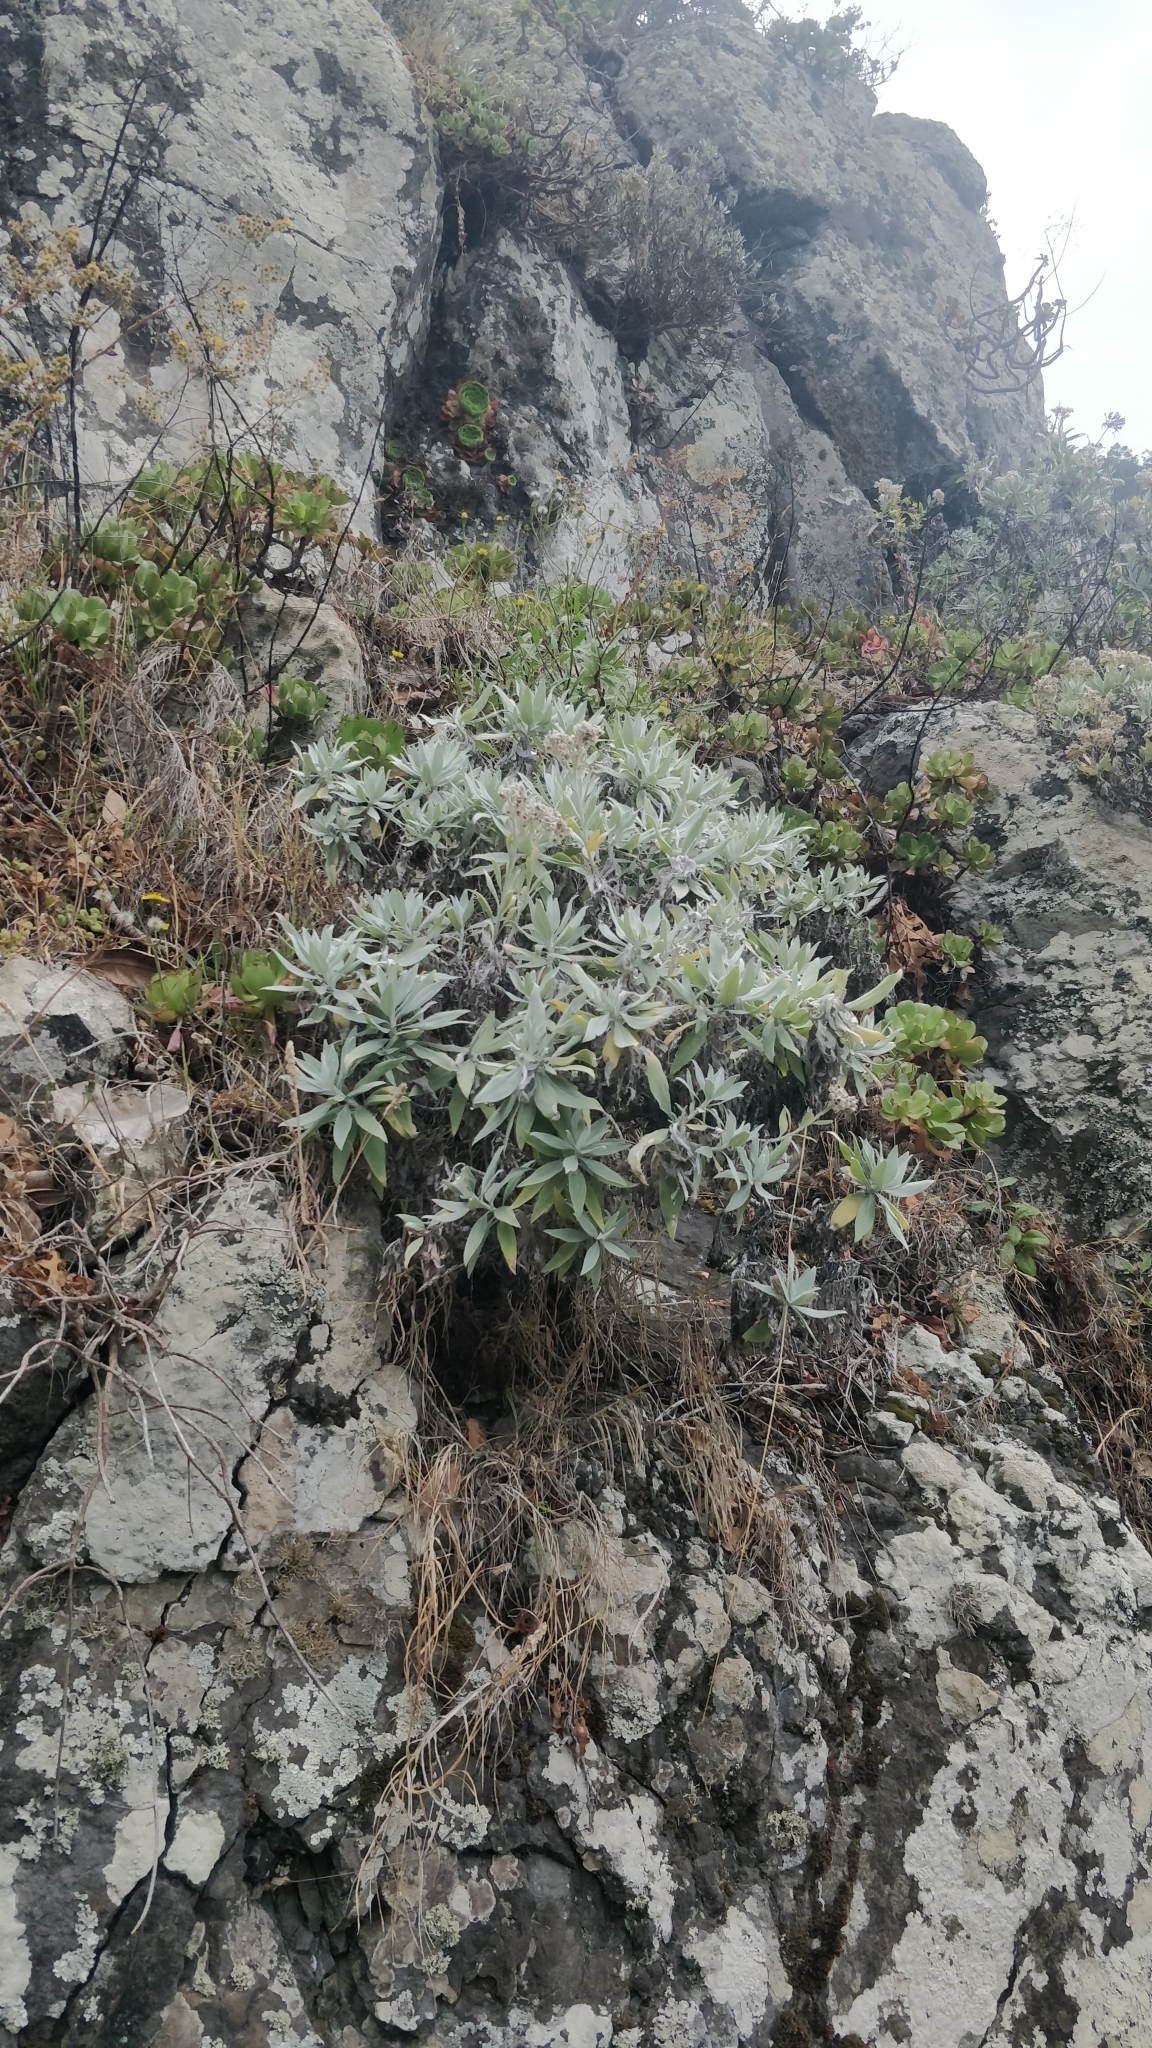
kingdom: Plantae
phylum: Tracheophyta
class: Magnoliopsida
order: Asterales
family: Asteraceae
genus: Helichrysum
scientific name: Helichrysum melaleucum
